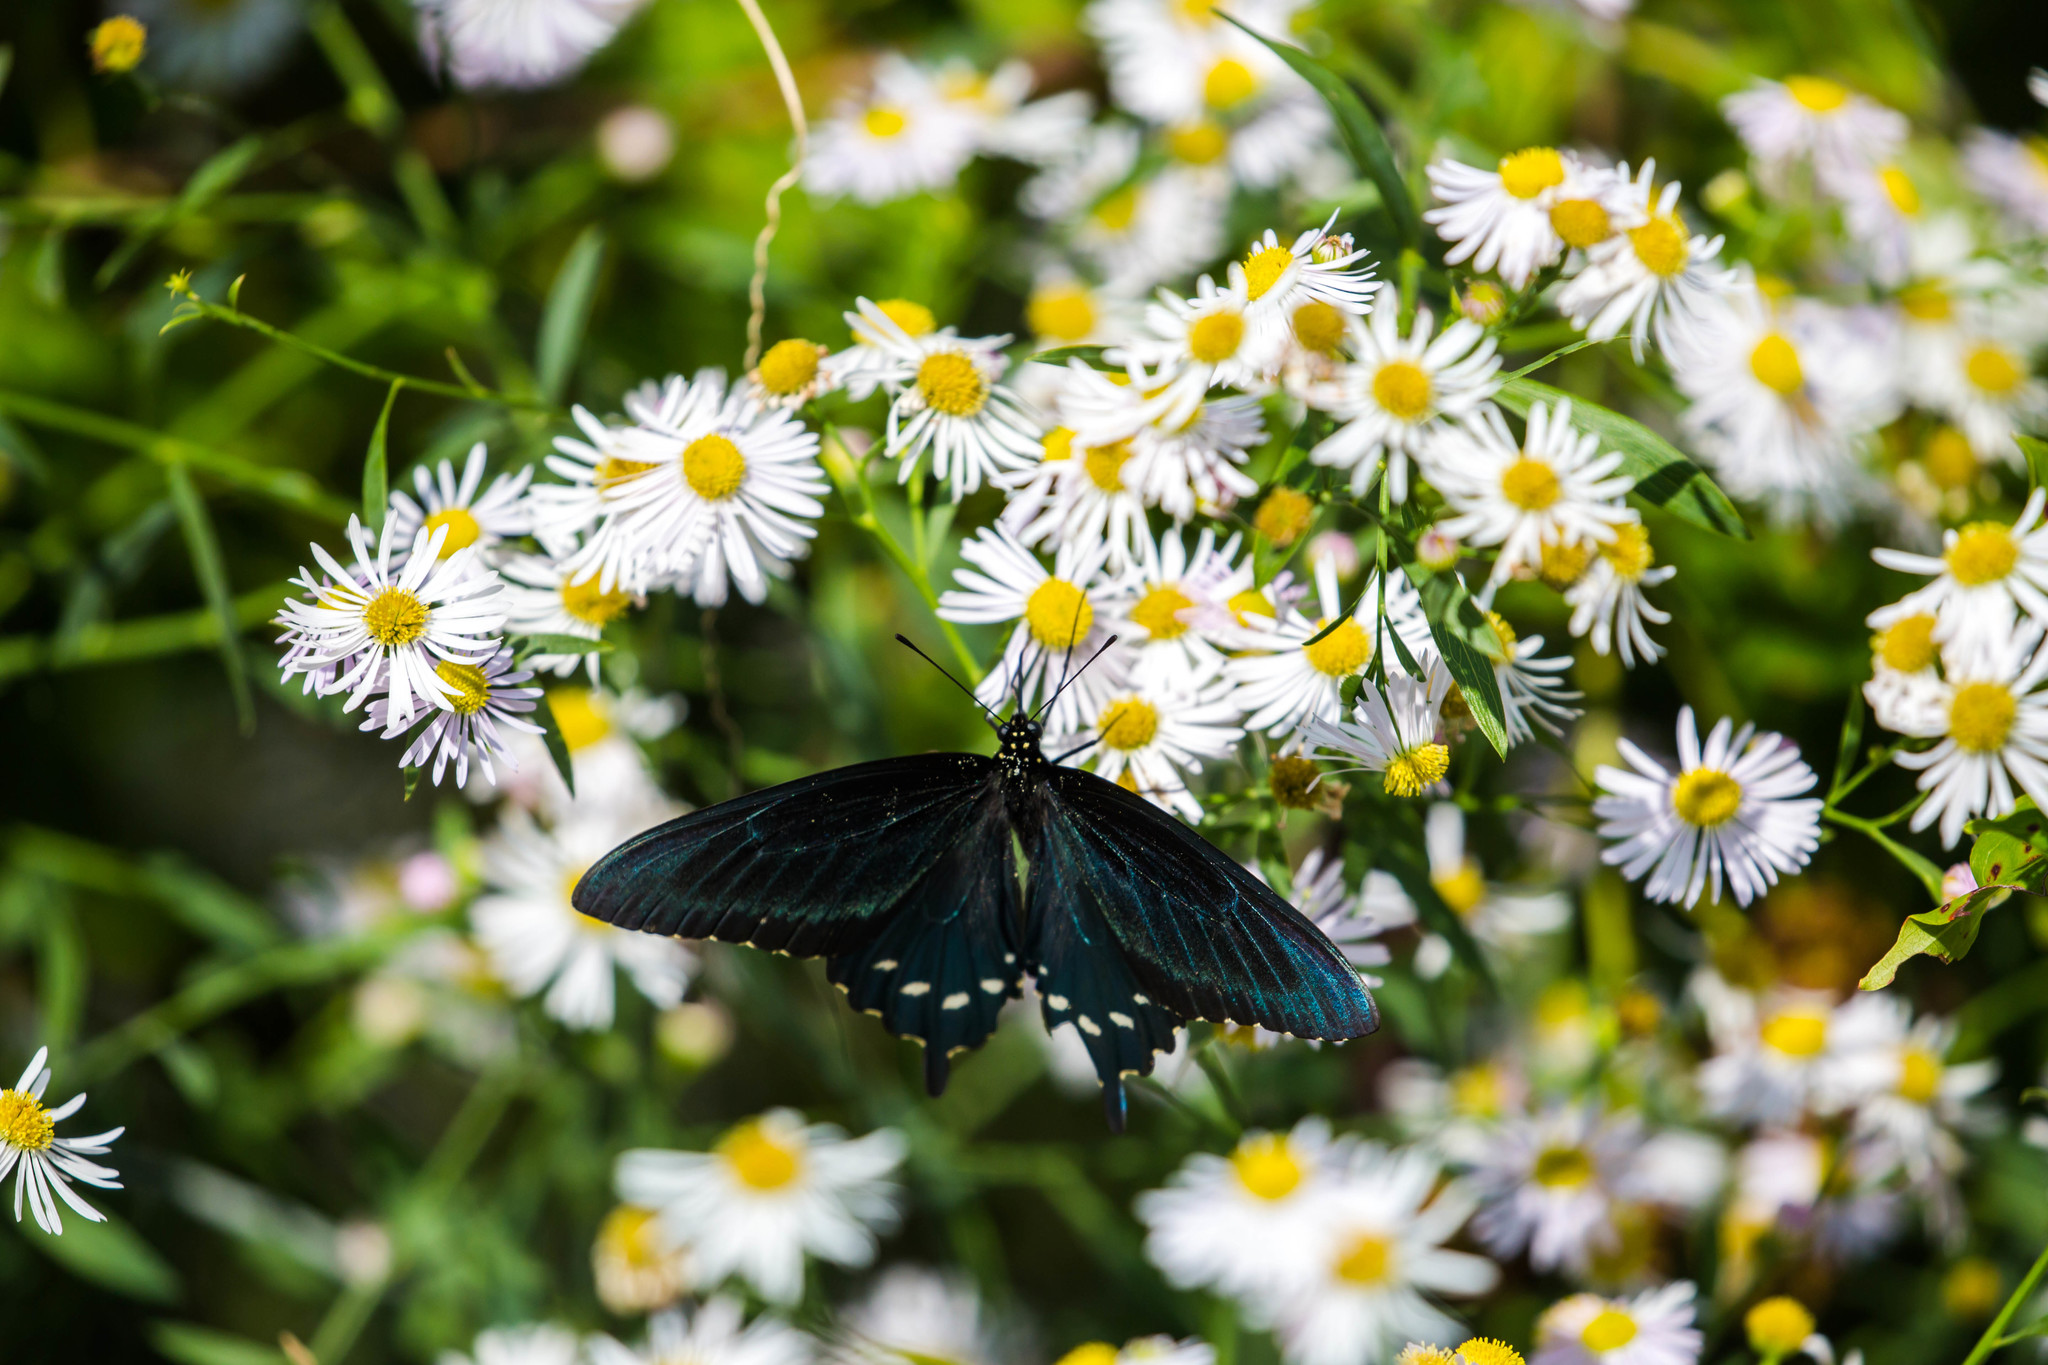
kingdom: Animalia
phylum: Arthropoda
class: Insecta
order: Lepidoptera
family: Papilionidae
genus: Battus
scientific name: Battus philenor
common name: Pipevine swallowtail
